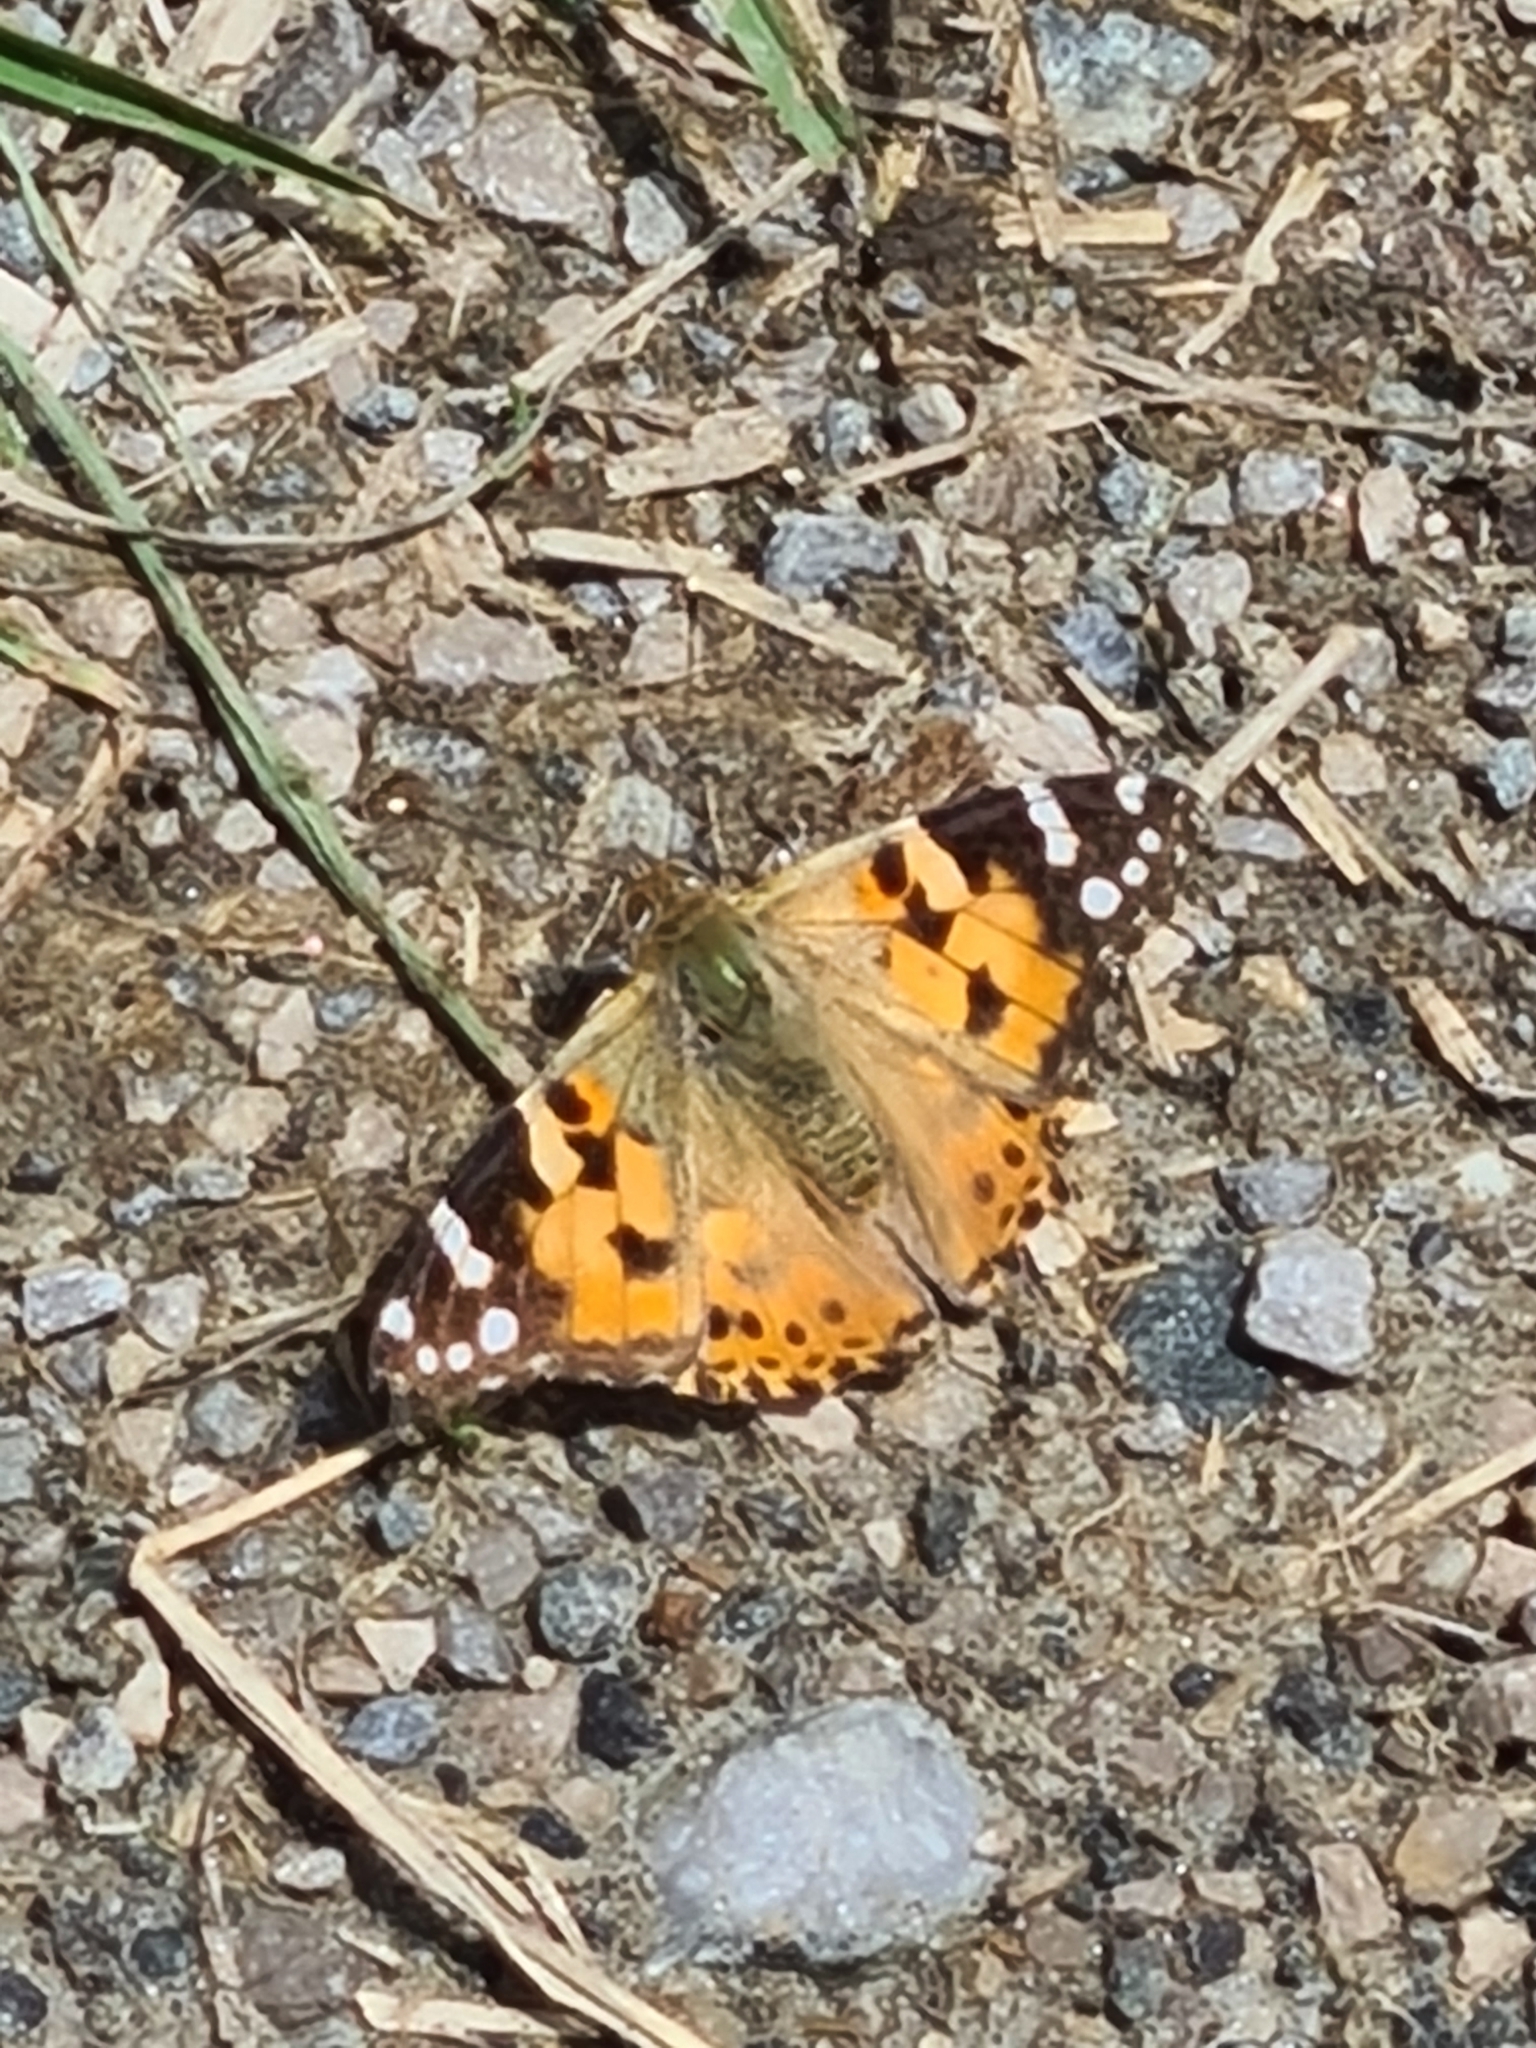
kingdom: Animalia
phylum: Arthropoda
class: Insecta
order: Lepidoptera
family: Nymphalidae
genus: Vanessa
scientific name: Vanessa cardui
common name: Painted lady
